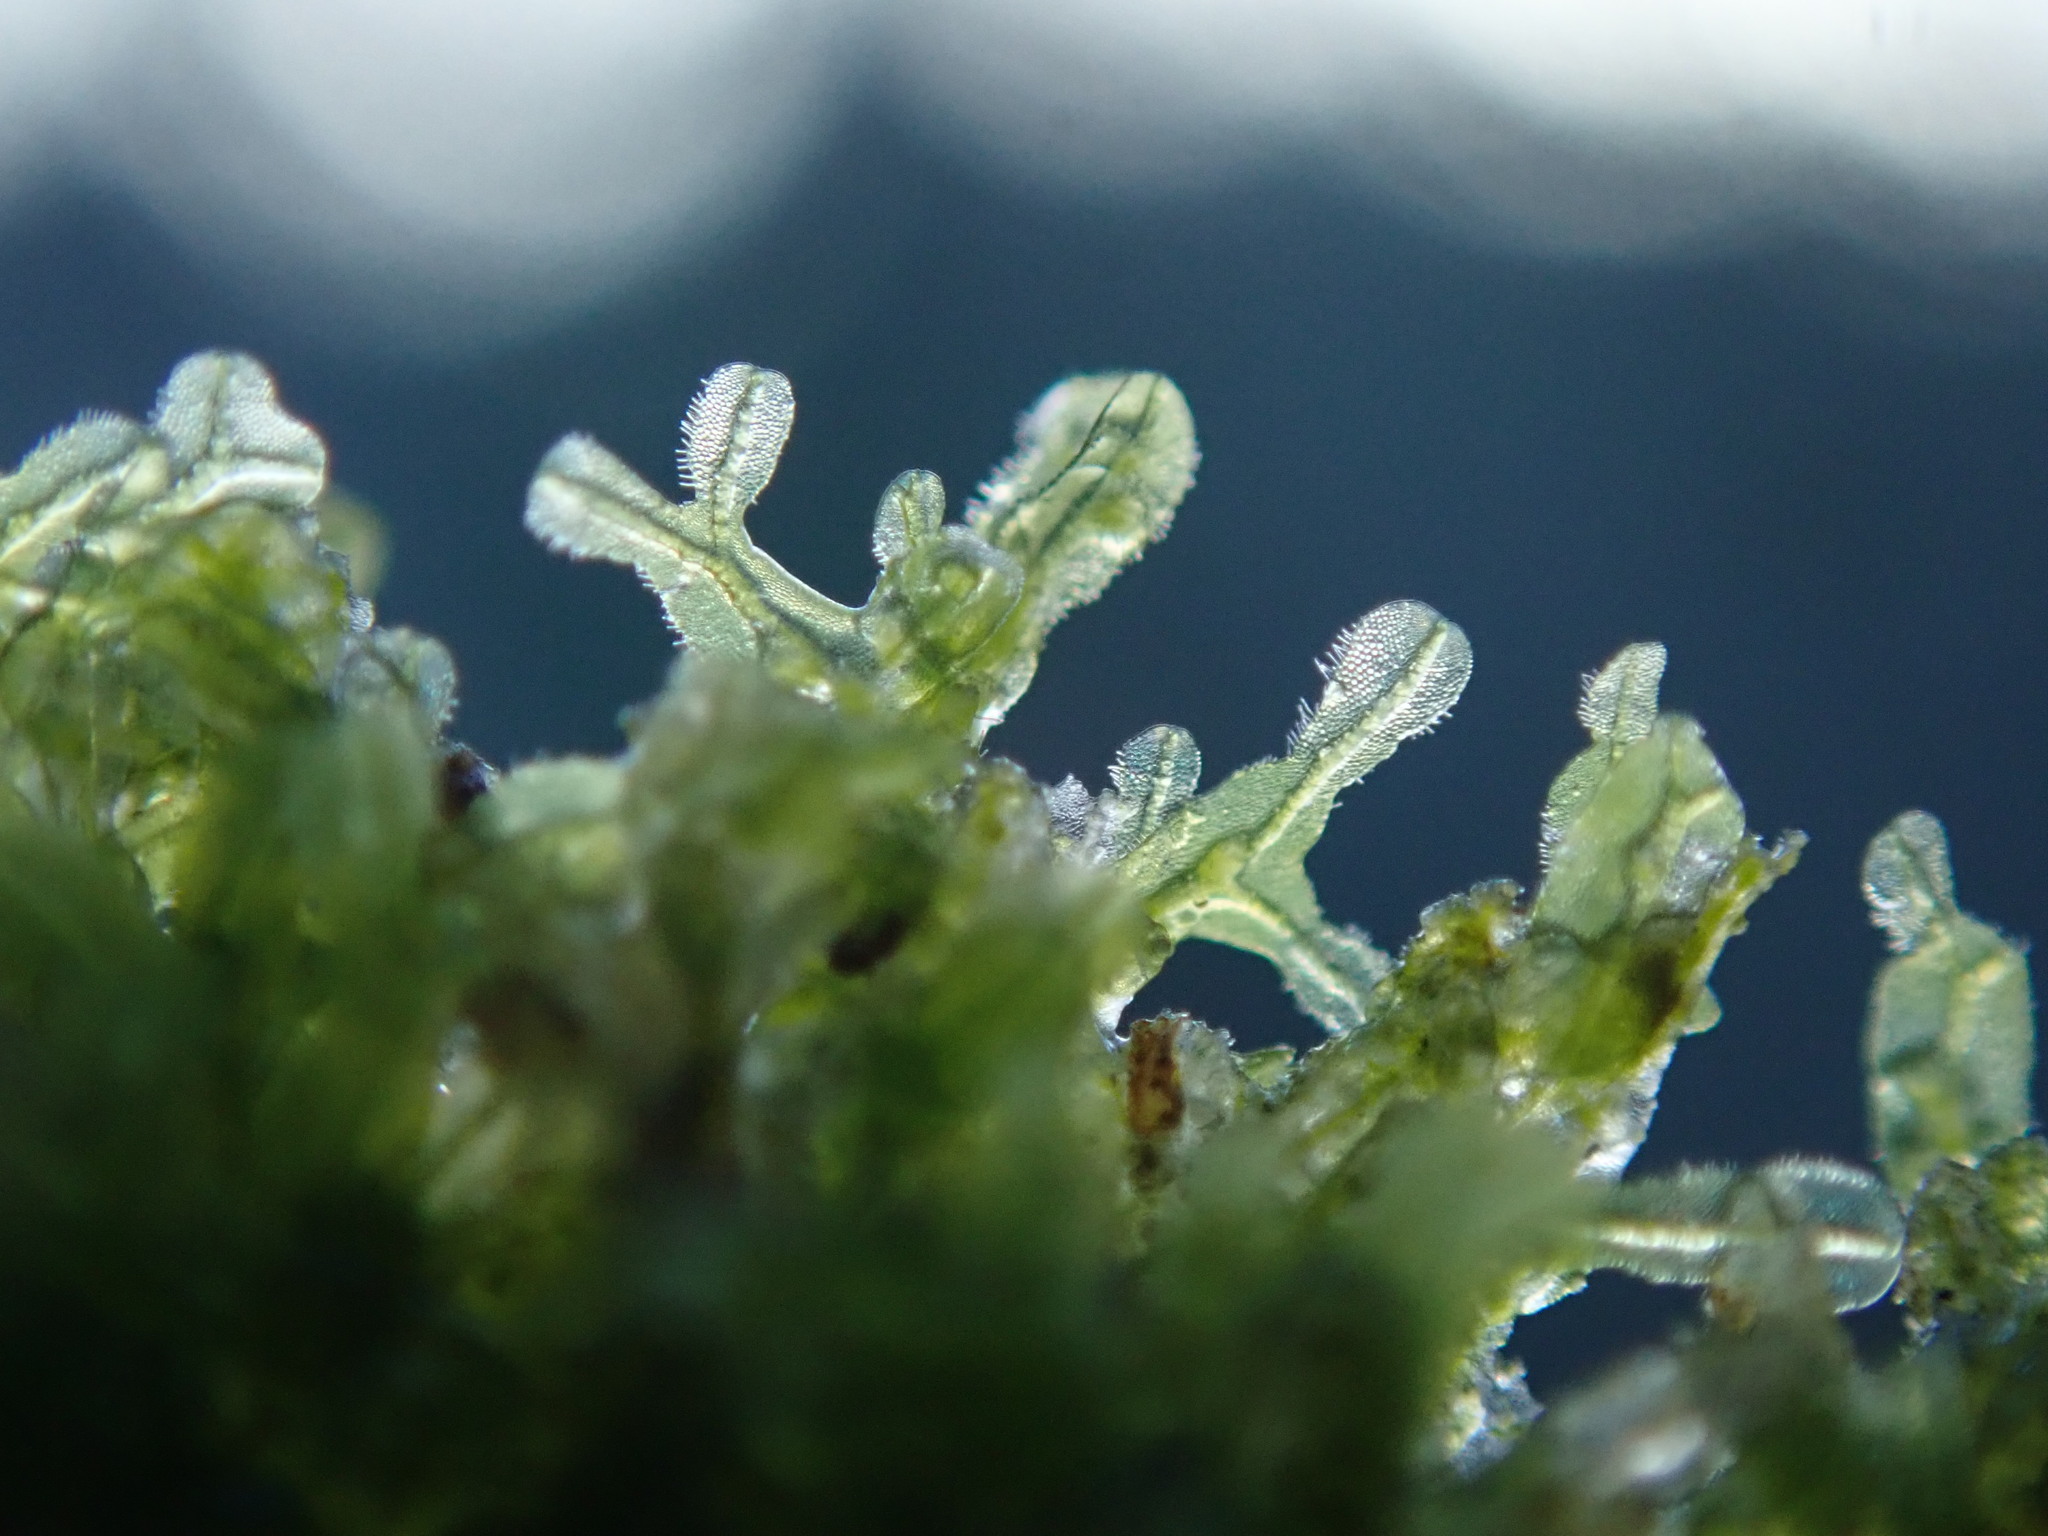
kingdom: Plantae
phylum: Marchantiophyta
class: Jungermanniopsida
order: Metzgeriales
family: Metzgeriaceae
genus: Metzgeria
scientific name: Metzgeria conjugata
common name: Rock veilwort
